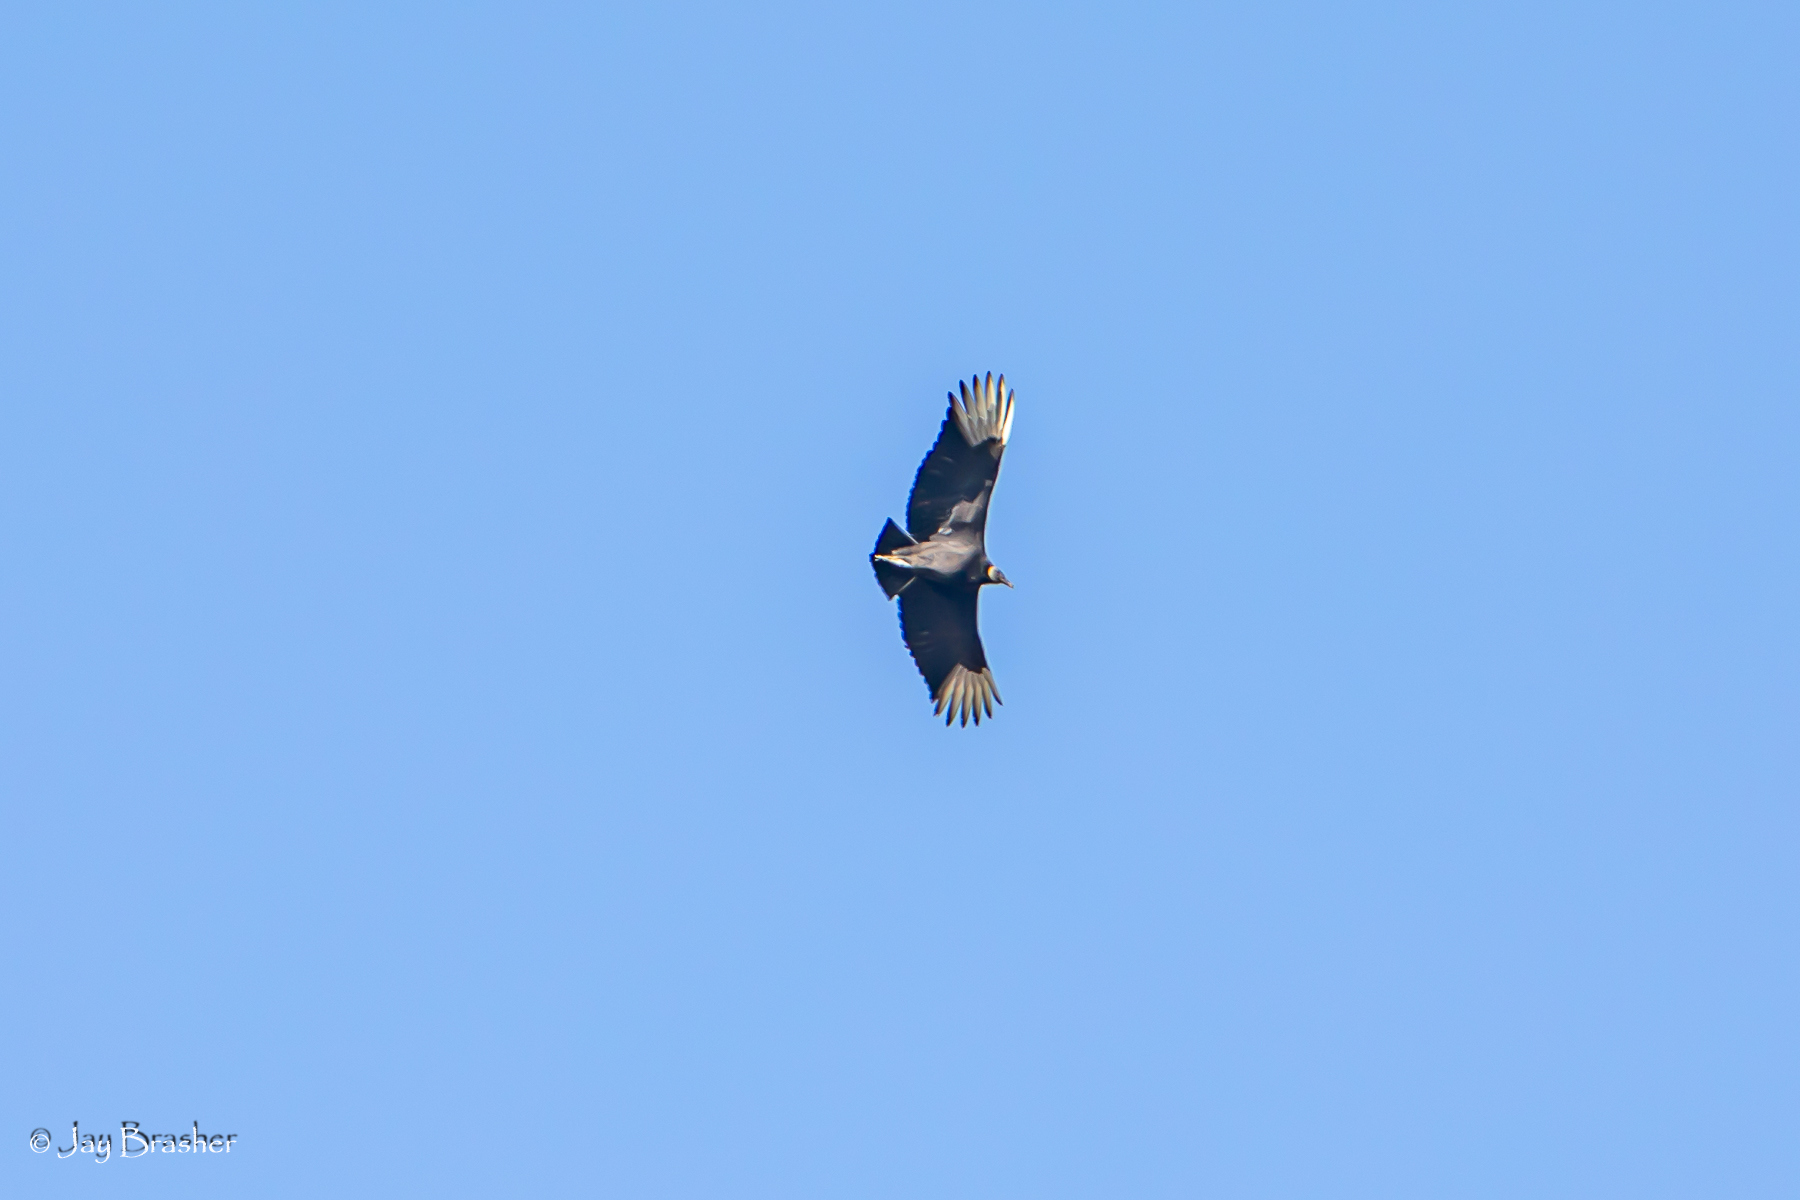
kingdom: Animalia
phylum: Chordata
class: Aves
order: Accipitriformes
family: Cathartidae
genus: Coragyps
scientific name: Coragyps atratus
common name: Black vulture
